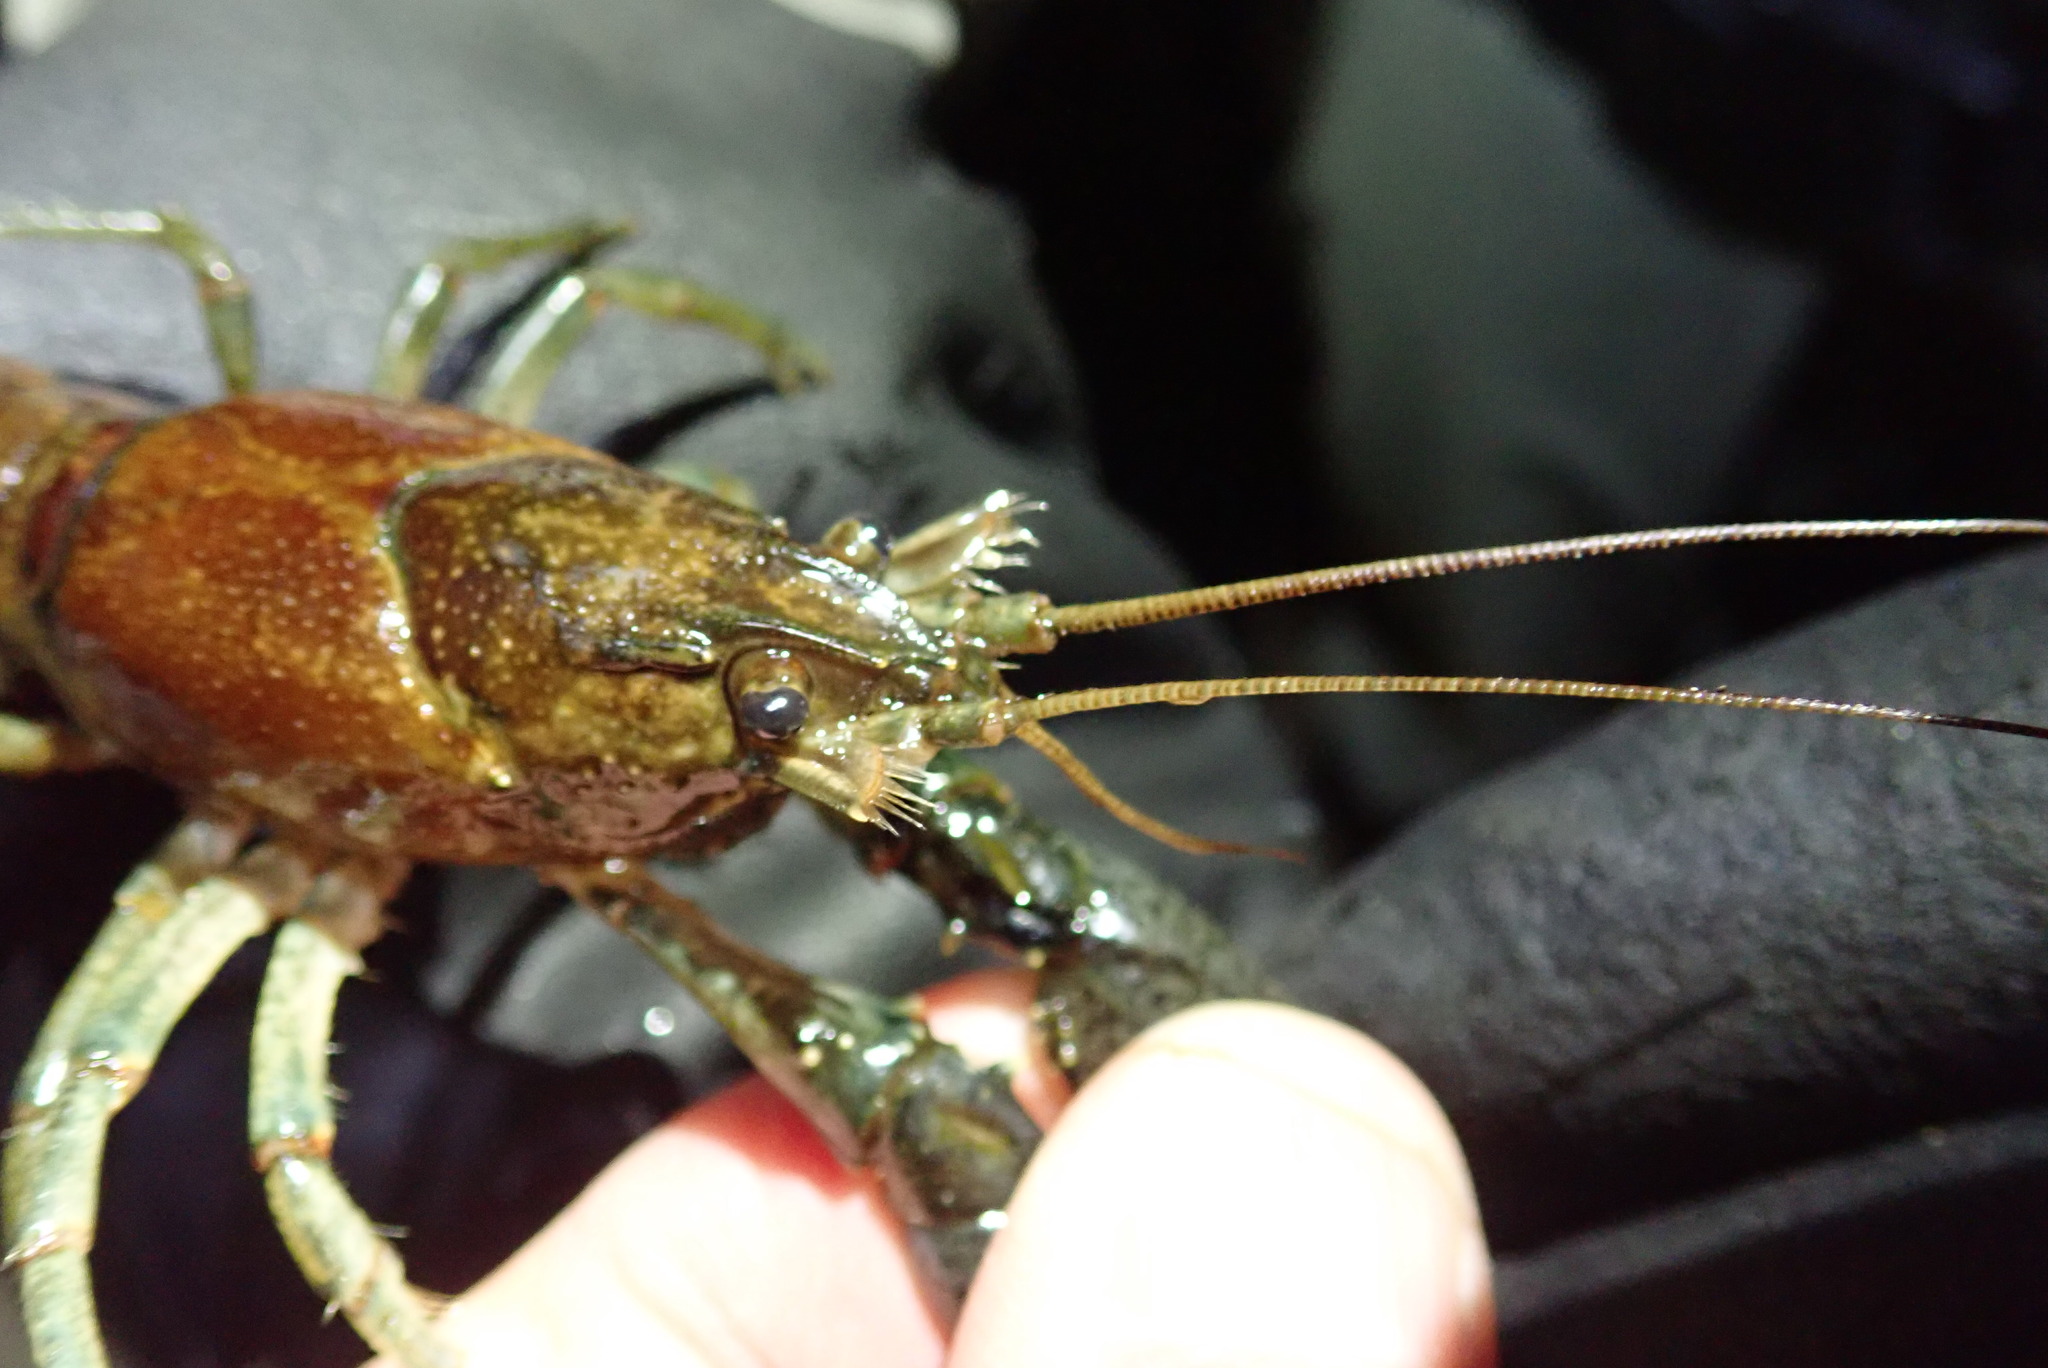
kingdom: Animalia
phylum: Arthropoda
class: Malacostraca
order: Decapoda
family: Cambaridae
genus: Faxonius
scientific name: Faxonius virilis
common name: Virile crayfish
